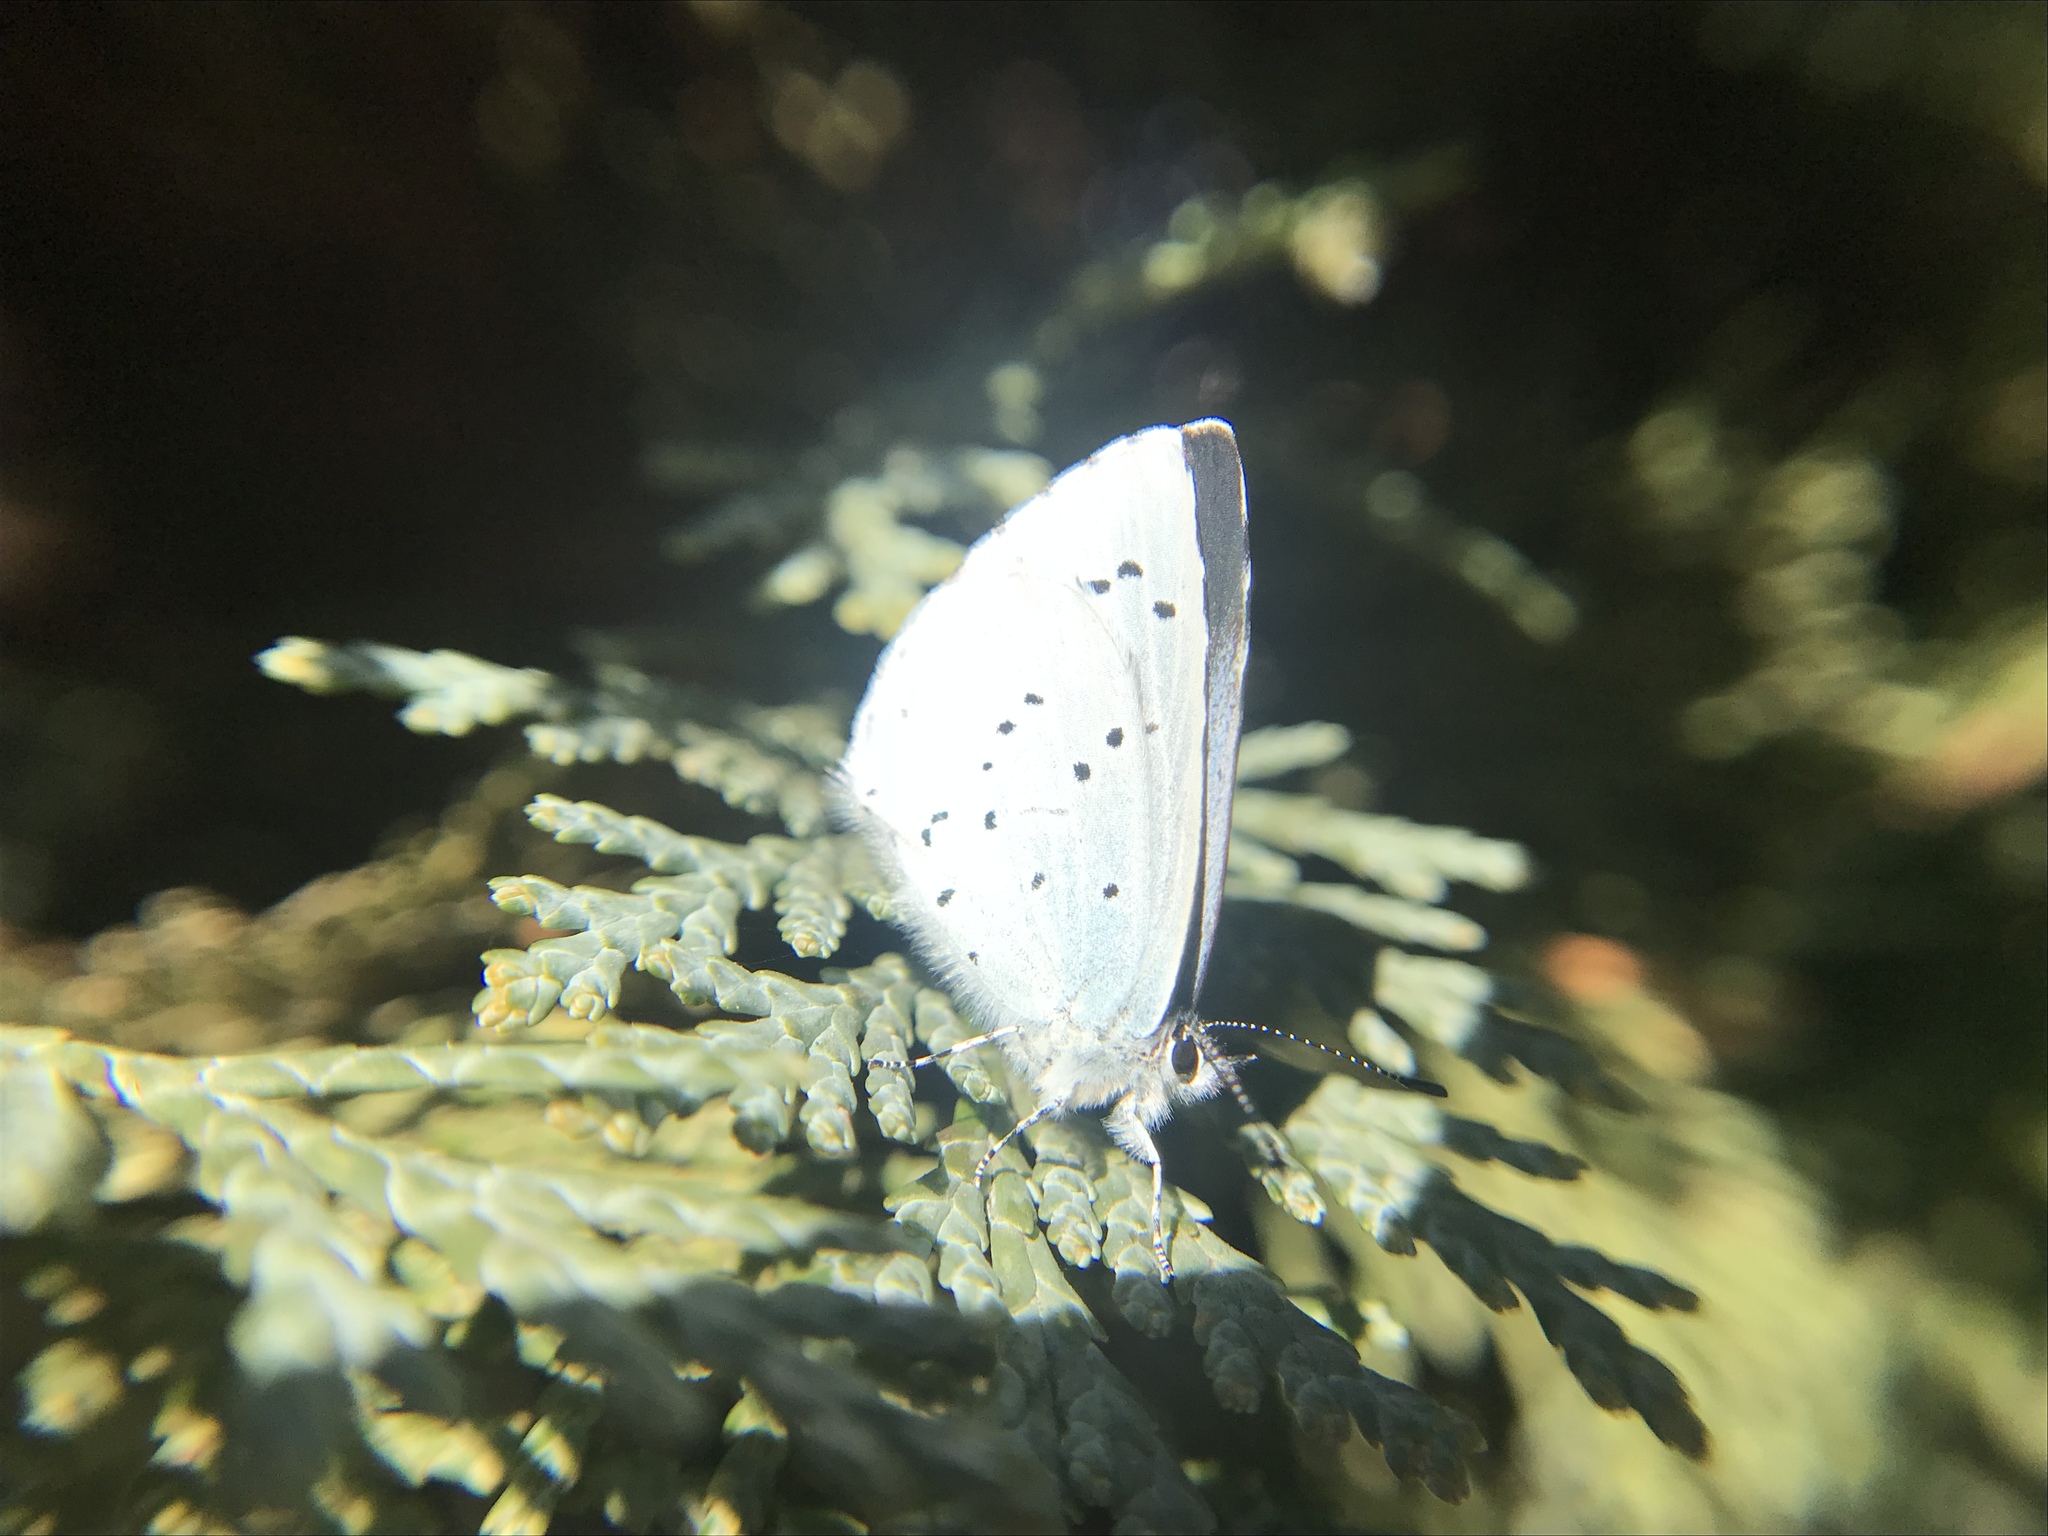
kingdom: Animalia
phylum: Arthropoda
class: Insecta
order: Lepidoptera
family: Lycaenidae
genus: Celastrina
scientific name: Celastrina argiolus
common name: Holly blue
